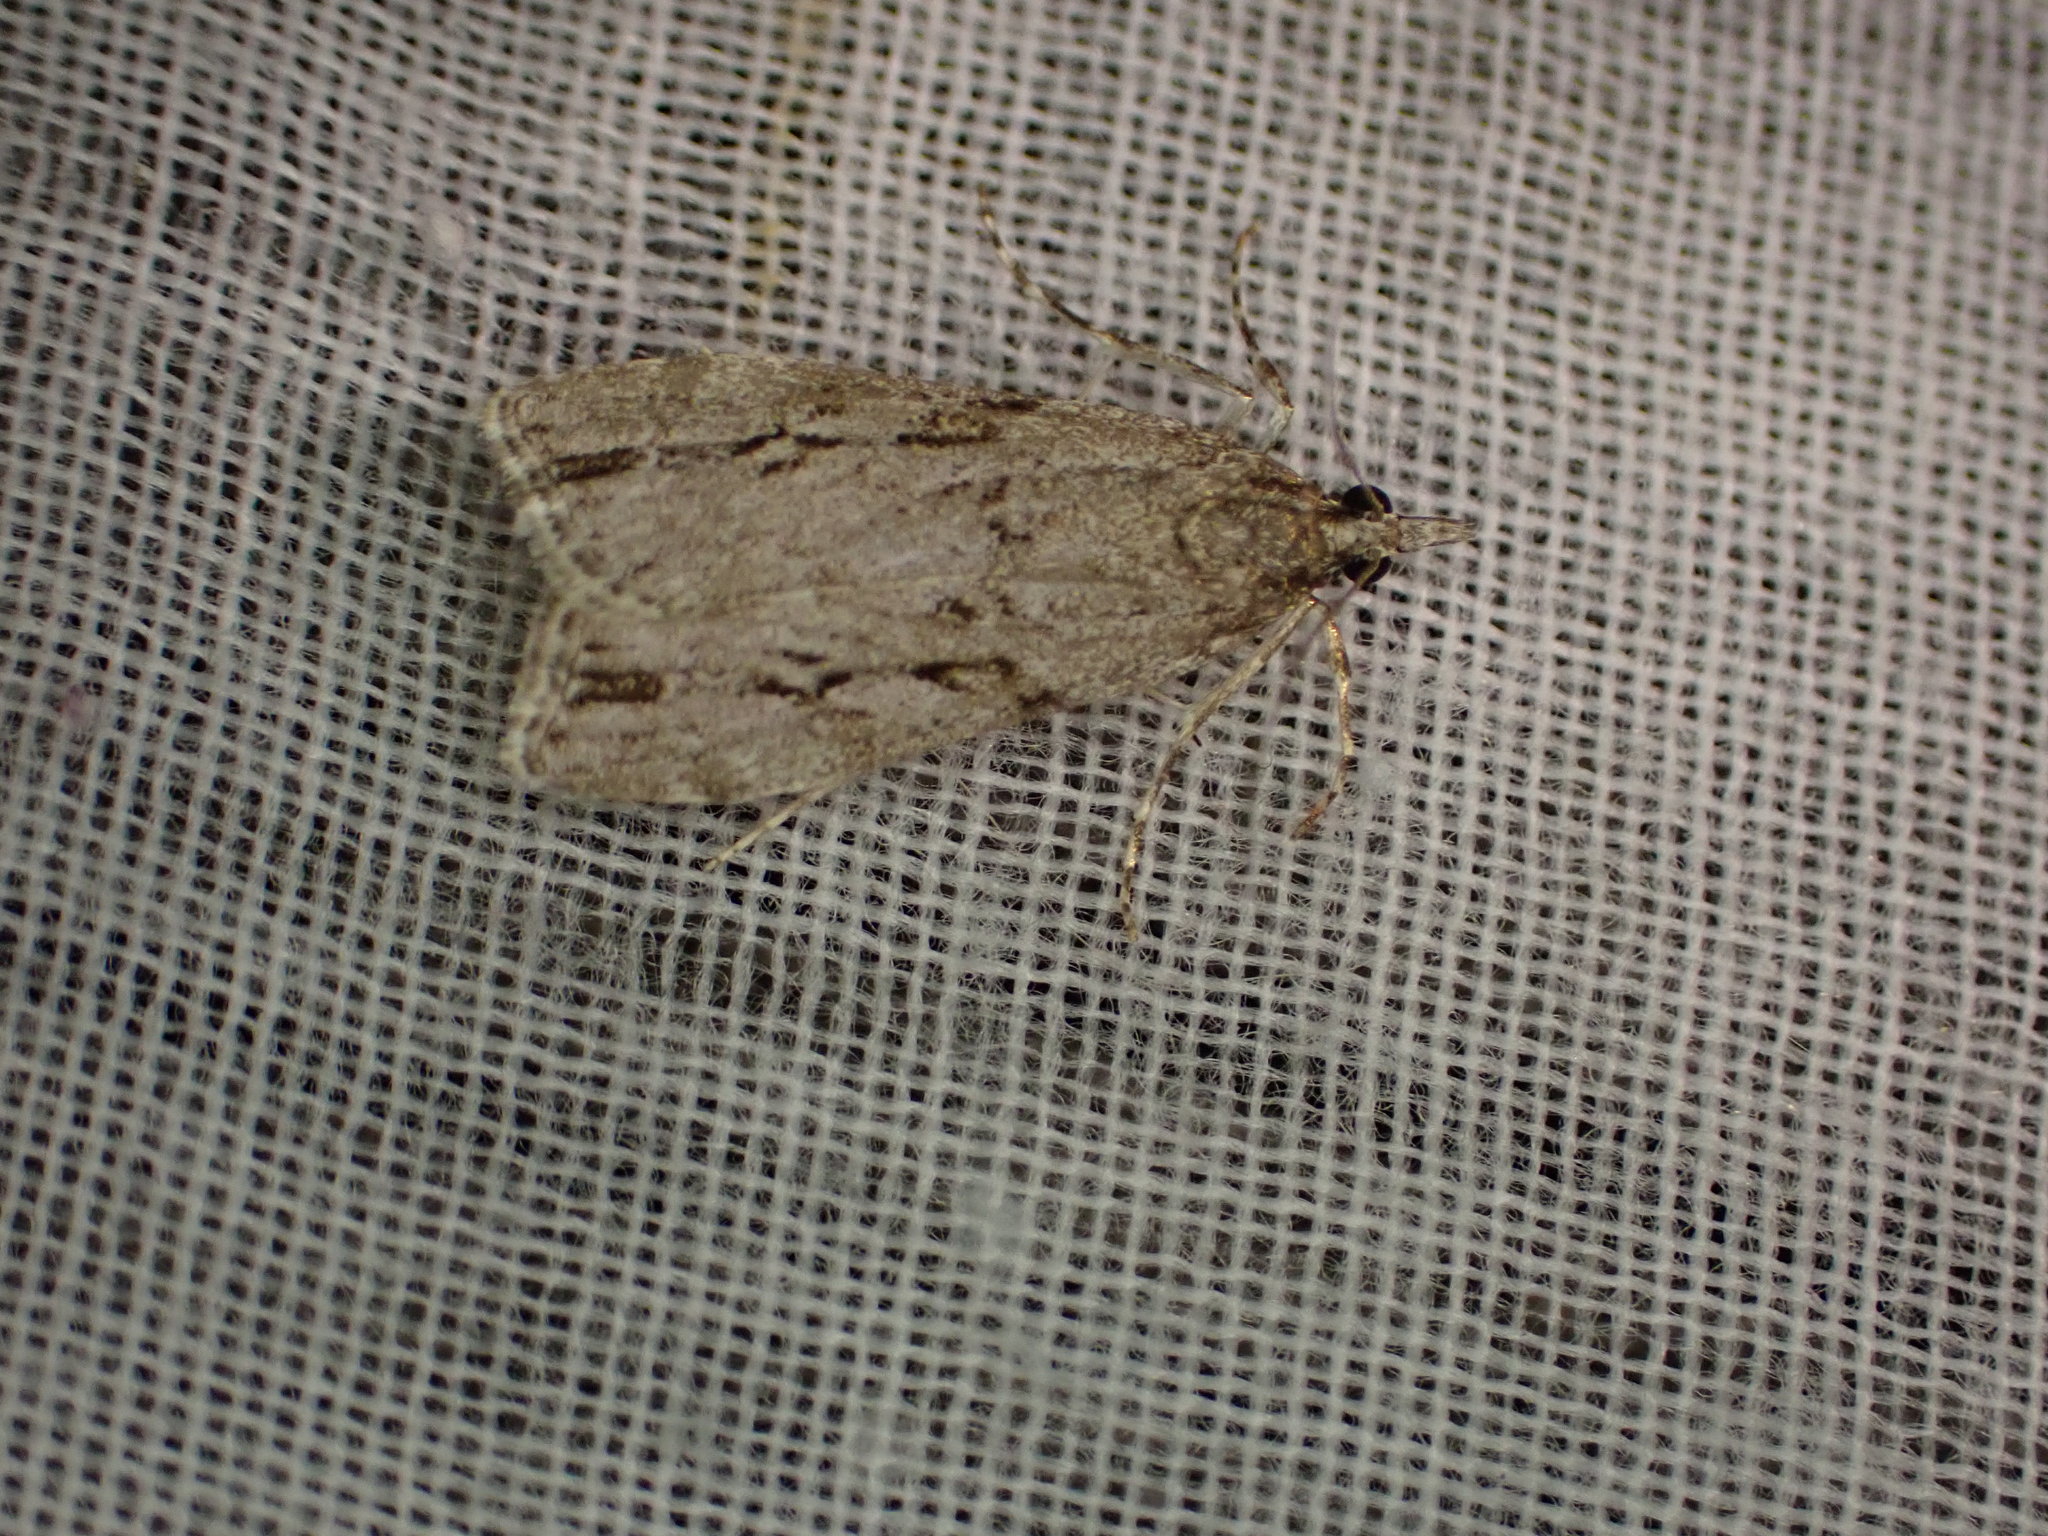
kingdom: Animalia
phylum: Arthropoda
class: Insecta
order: Lepidoptera
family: Crambidae
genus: Eudonia
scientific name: Eudonia bisinualis
